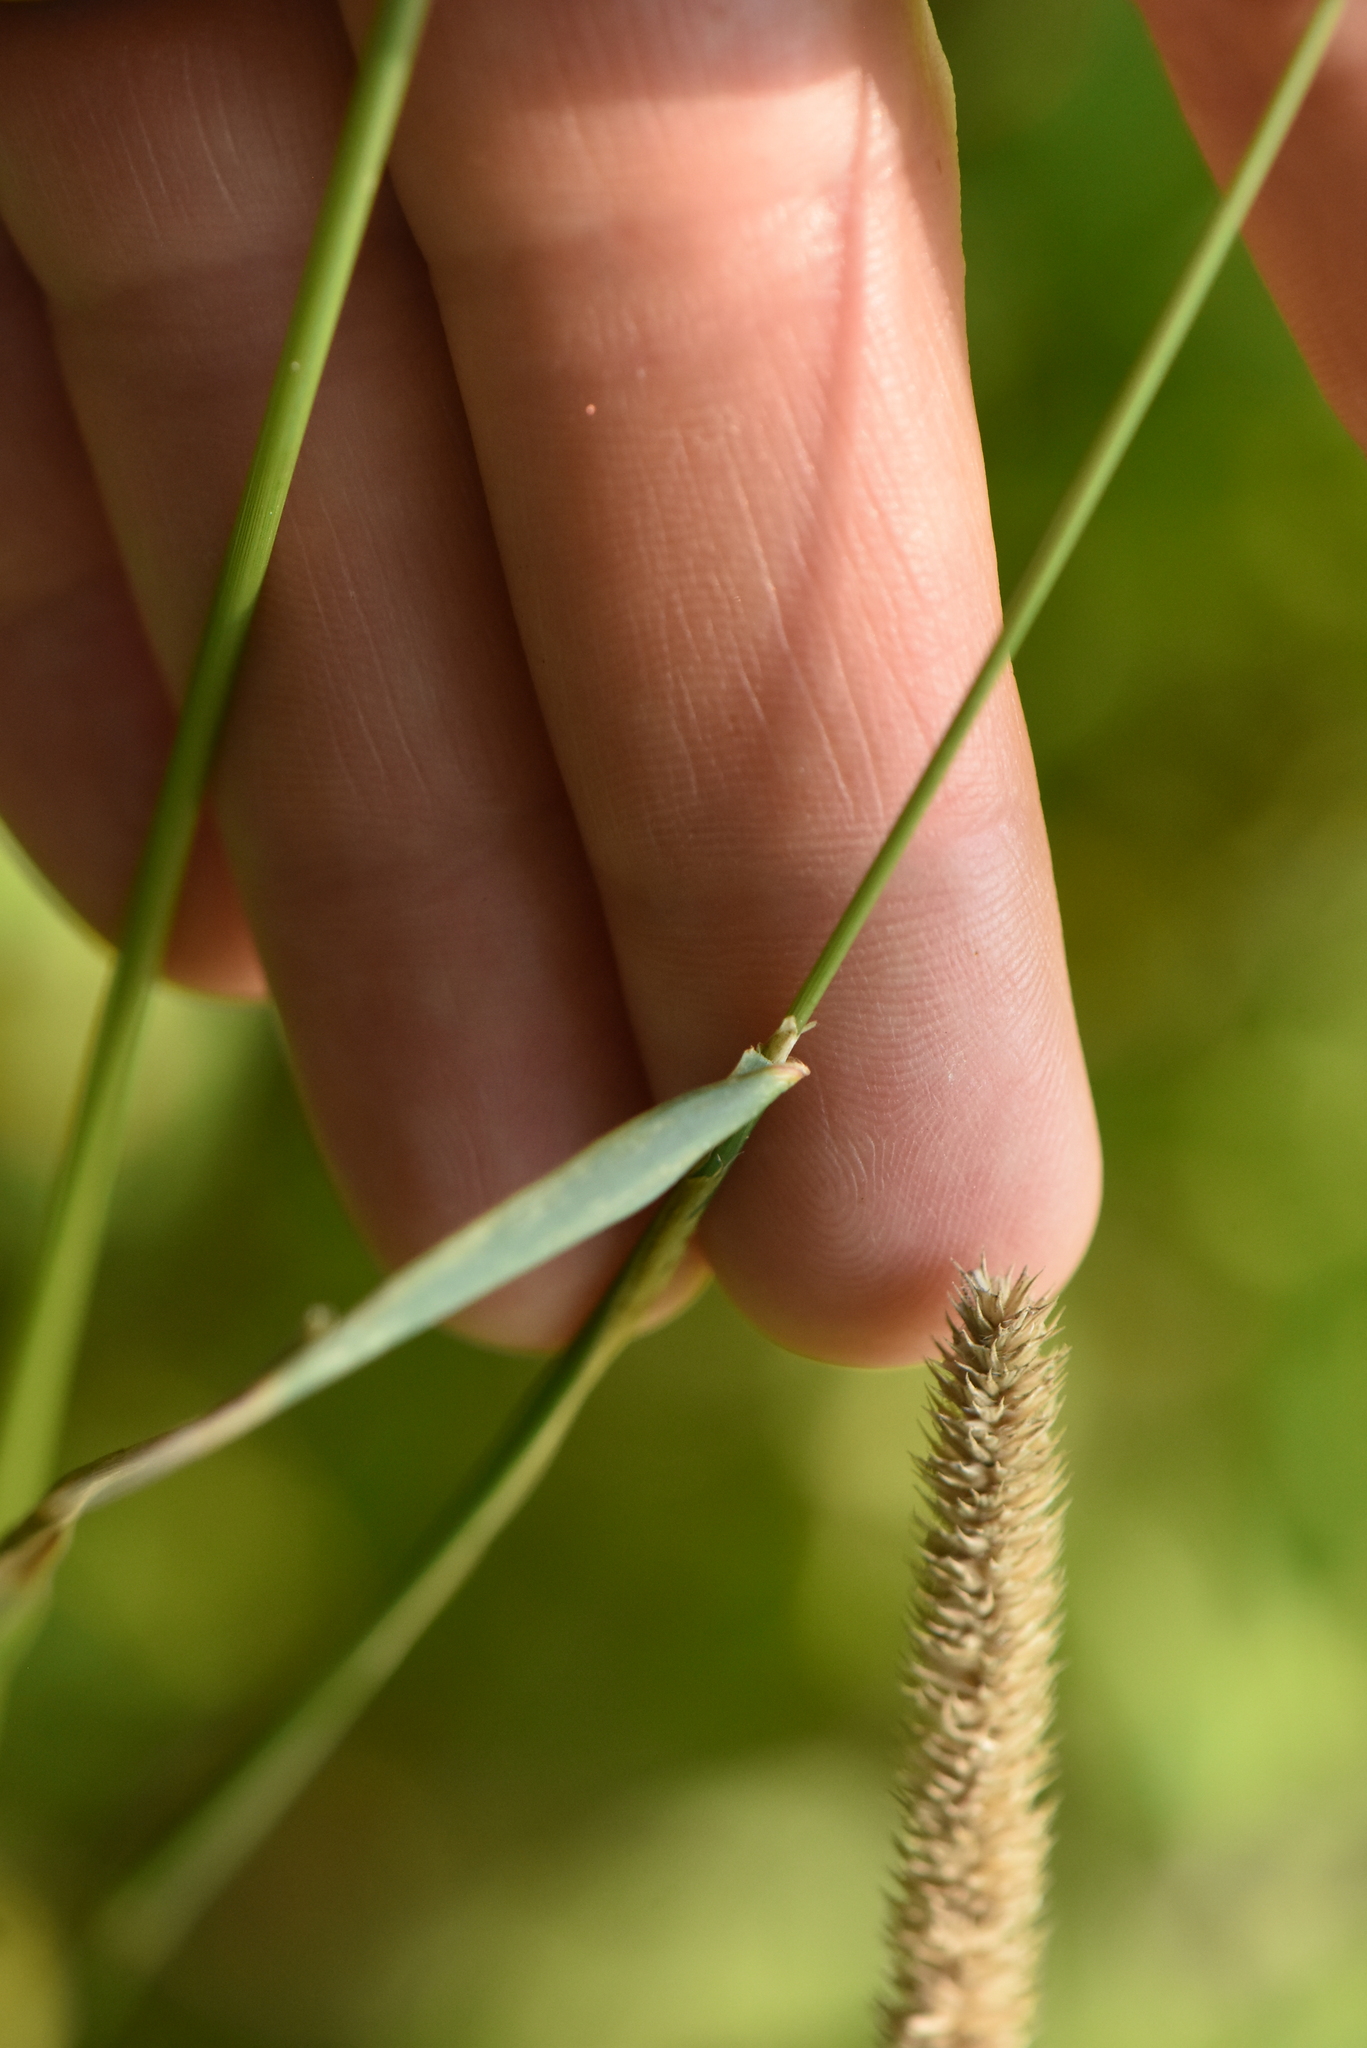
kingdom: Plantae
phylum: Tracheophyta
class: Liliopsida
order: Poales
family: Poaceae
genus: Phleum
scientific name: Phleum pratense
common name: Timothy grass
